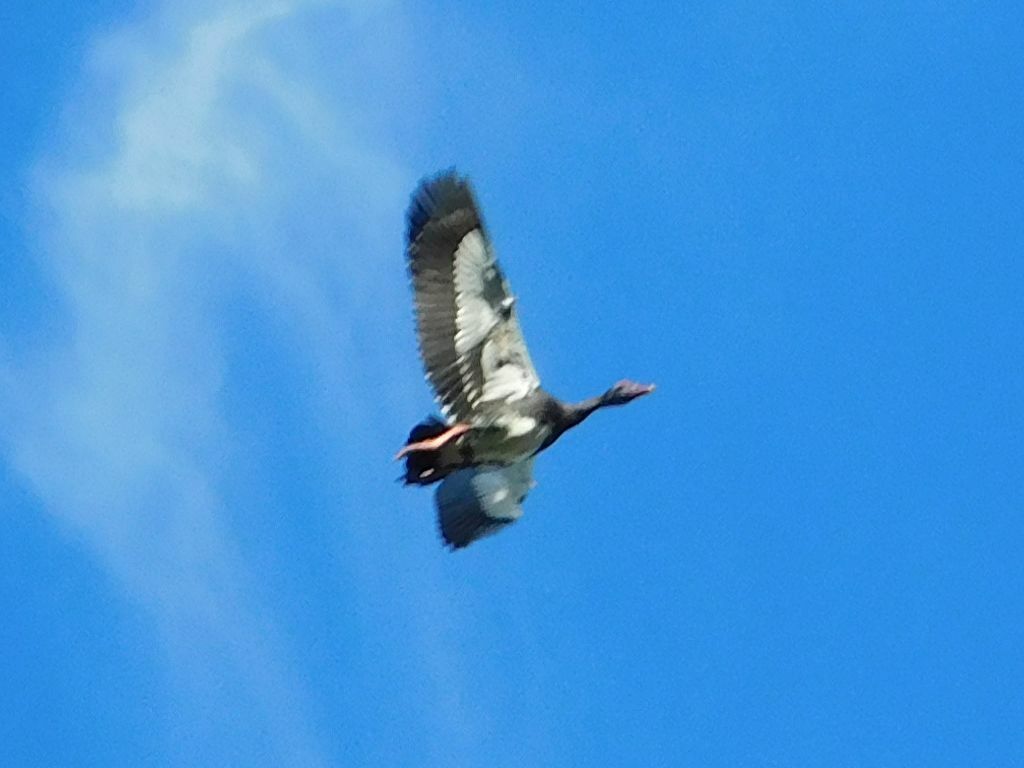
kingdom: Animalia
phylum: Chordata
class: Aves
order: Anseriformes
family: Anatidae
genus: Plectropterus
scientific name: Plectropterus gambensis
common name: Spur-winged goose
